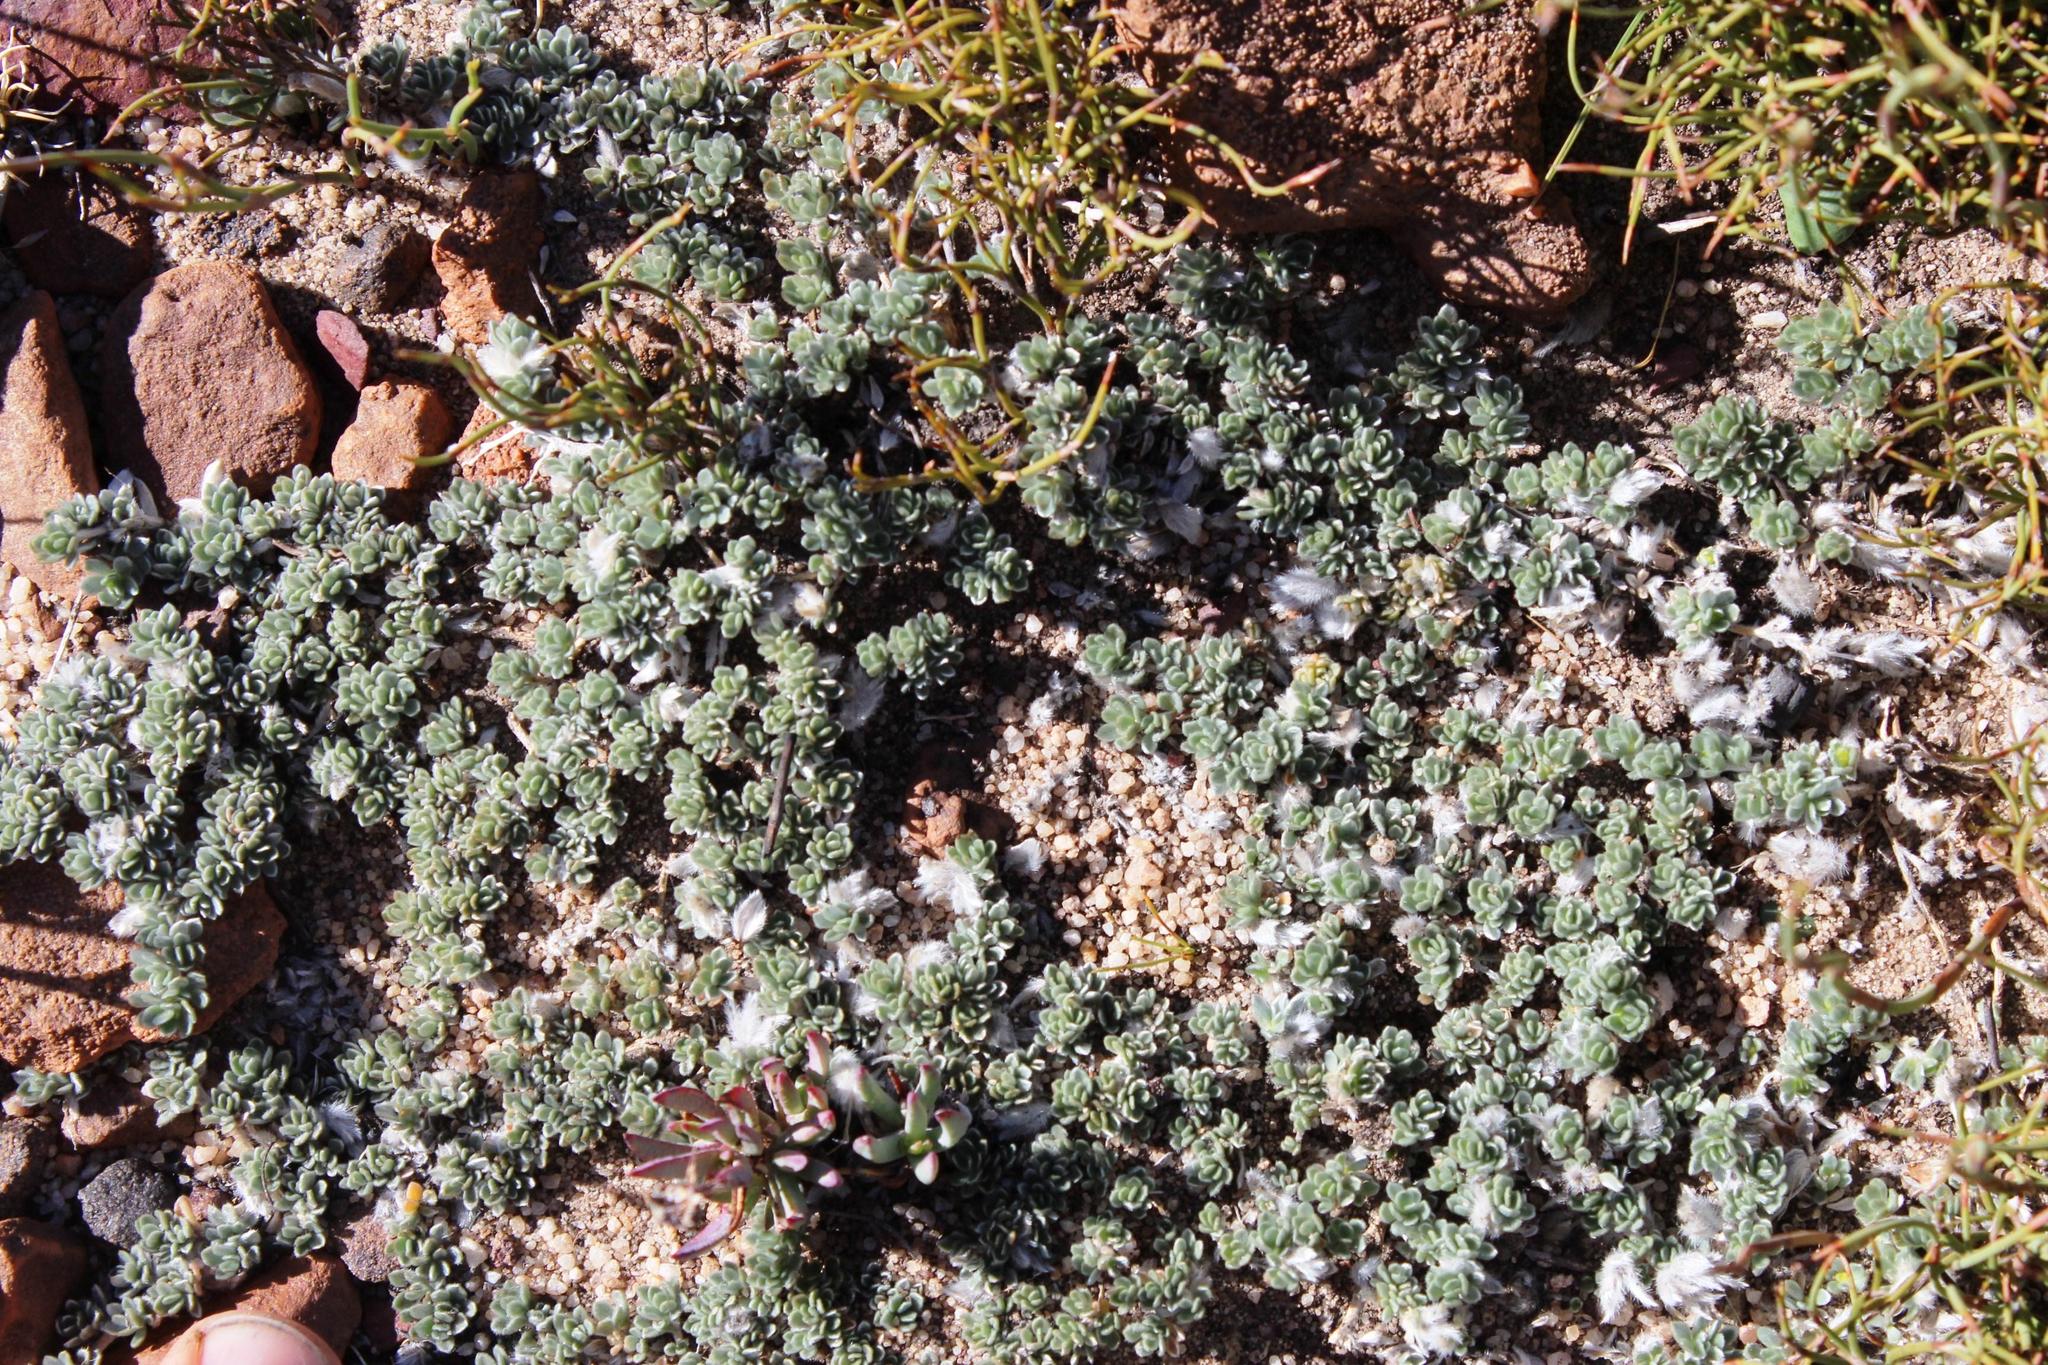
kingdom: Plantae
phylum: Tracheophyta
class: Magnoliopsida
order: Fabales
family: Fabaceae
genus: Aspalathus
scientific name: Aspalathus bodkinii
